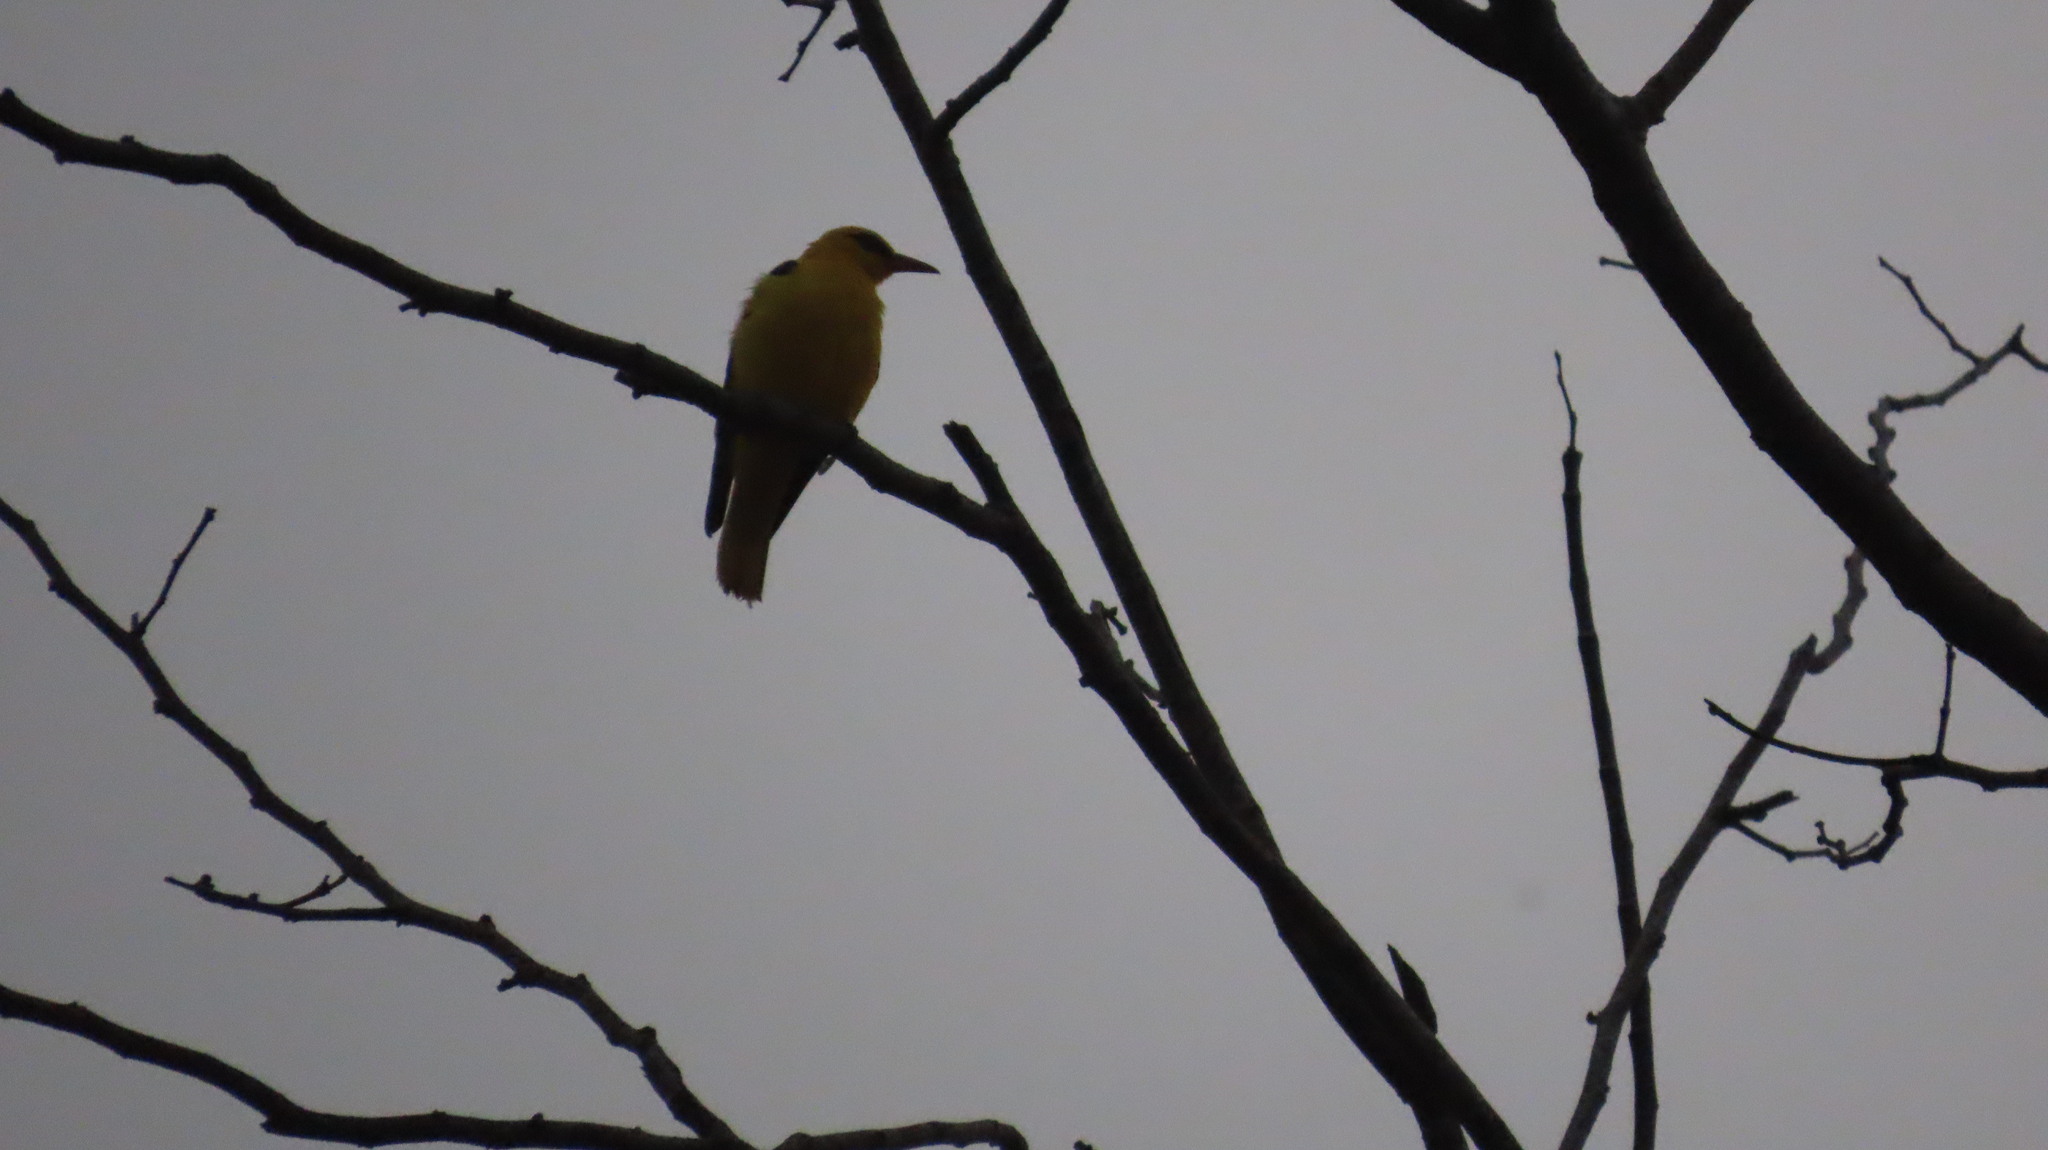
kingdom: Animalia
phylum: Chordata
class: Aves
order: Passeriformes
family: Oriolidae
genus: Oriolus
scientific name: Oriolus kundoo
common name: Indian golden oriole
